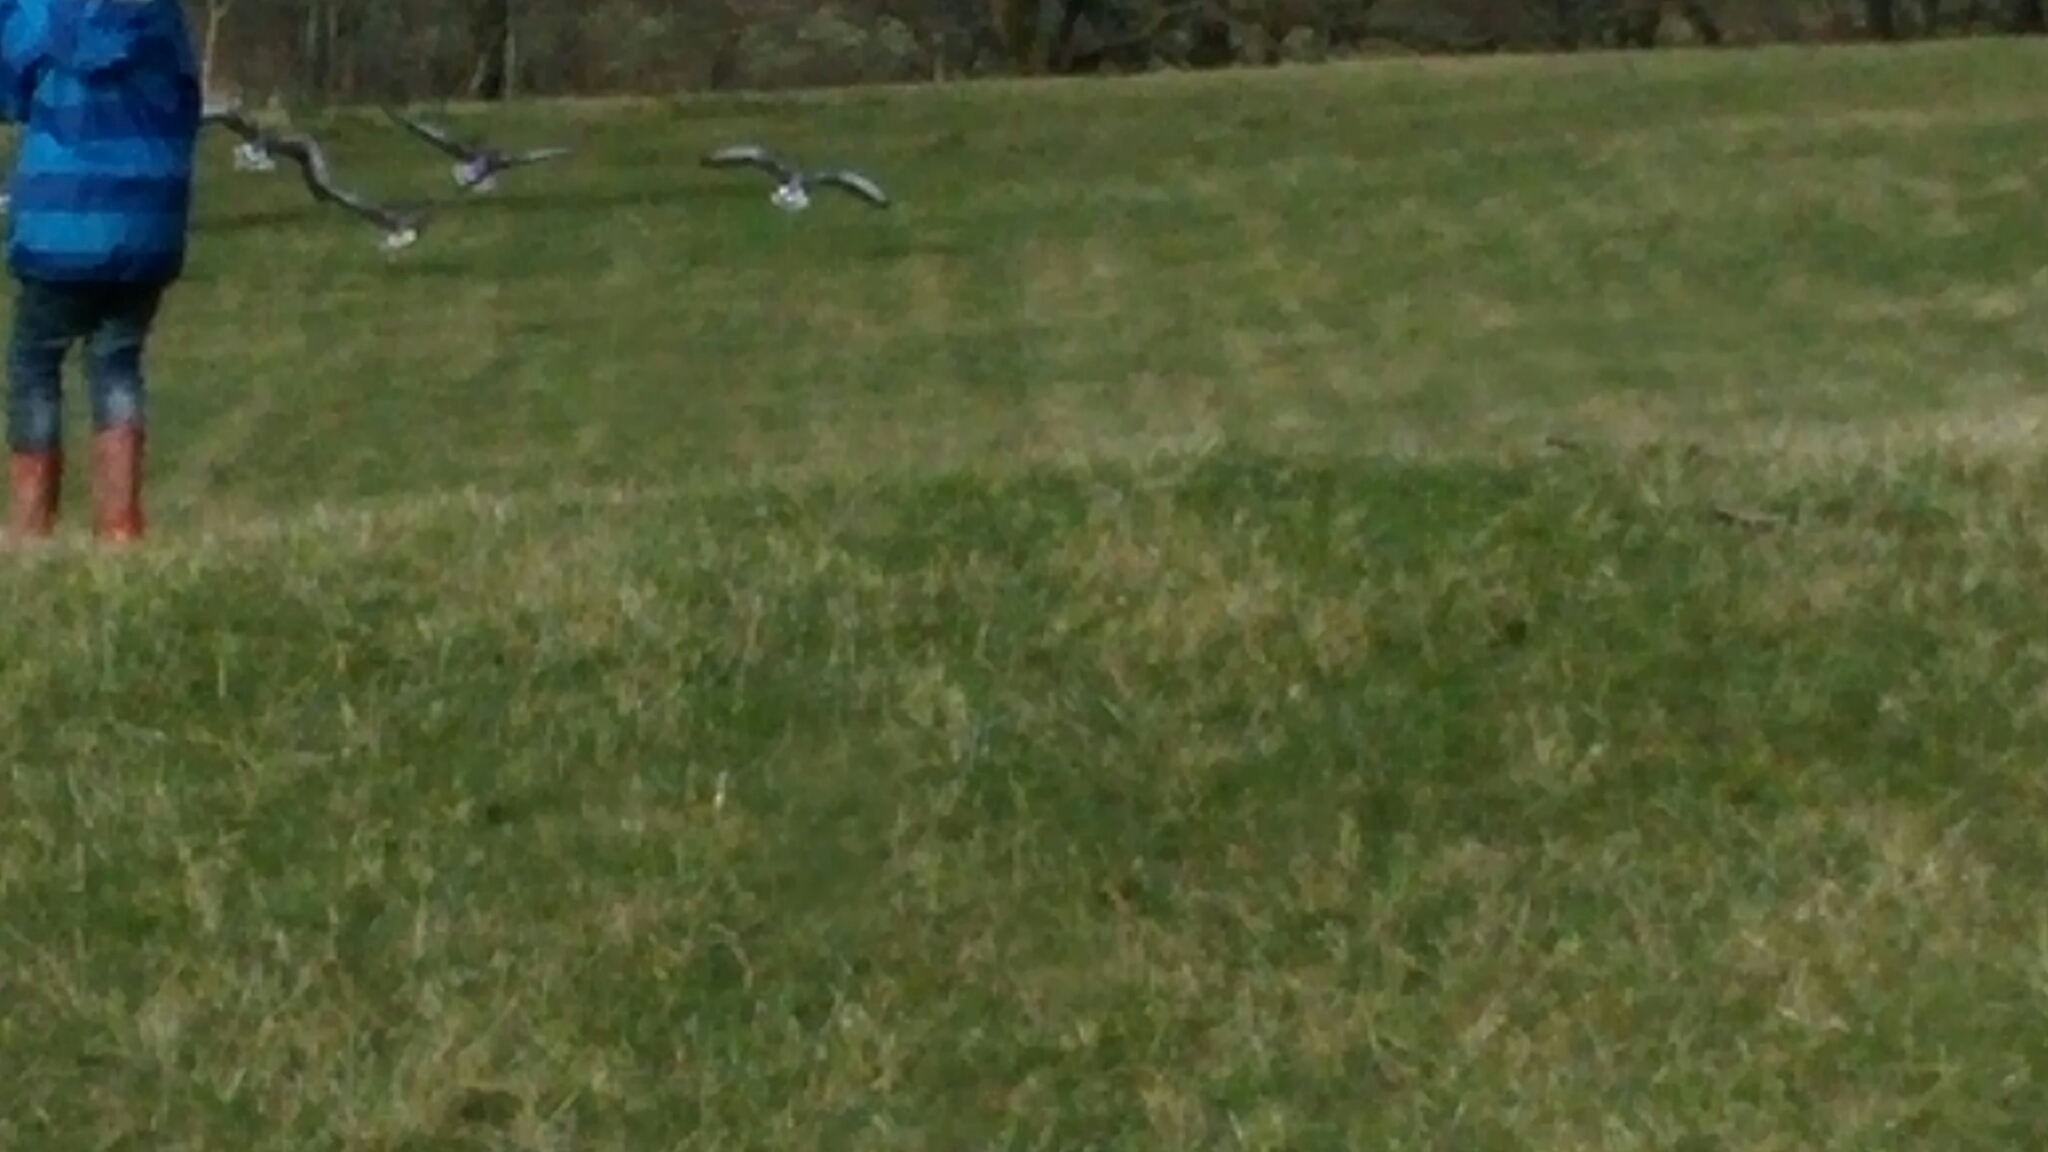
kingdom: Animalia
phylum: Chordata
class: Aves
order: Anseriformes
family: Anatidae
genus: Anser
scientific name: Anser anser
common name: Greylag goose
